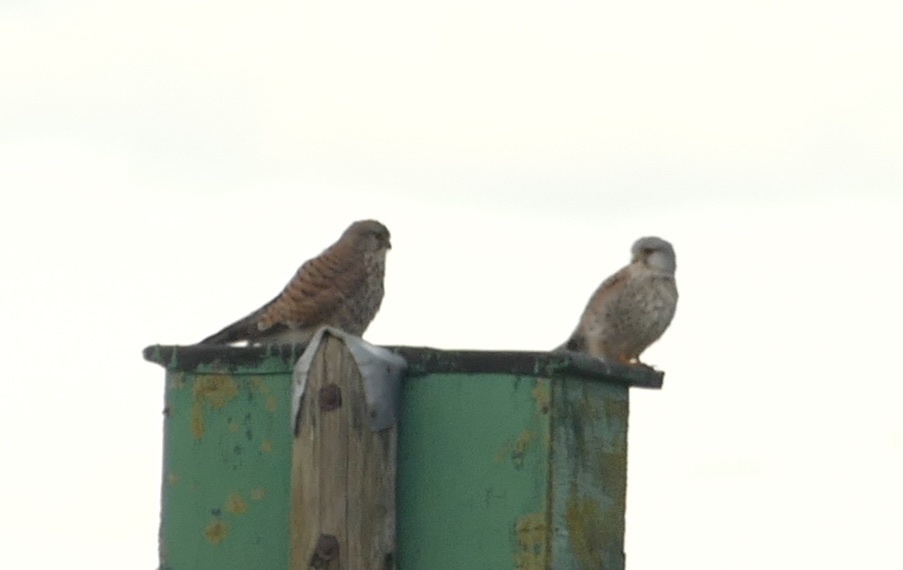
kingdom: Animalia
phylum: Chordata
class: Aves
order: Falconiformes
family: Falconidae
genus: Falco
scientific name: Falco tinnunculus
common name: Common kestrel
